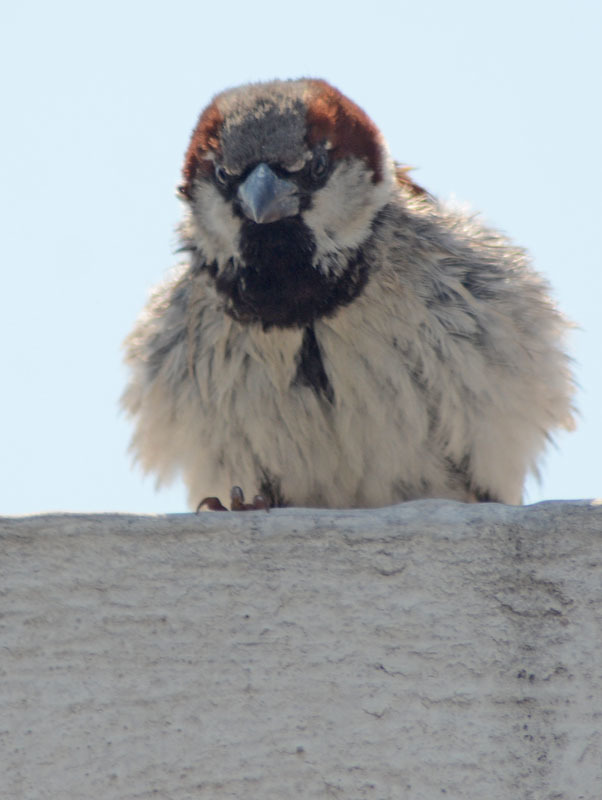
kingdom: Animalia
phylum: Chordata
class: Aves
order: Passeriformes
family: Passeridae
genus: Passer
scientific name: Passer domesticus
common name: House sparrow
